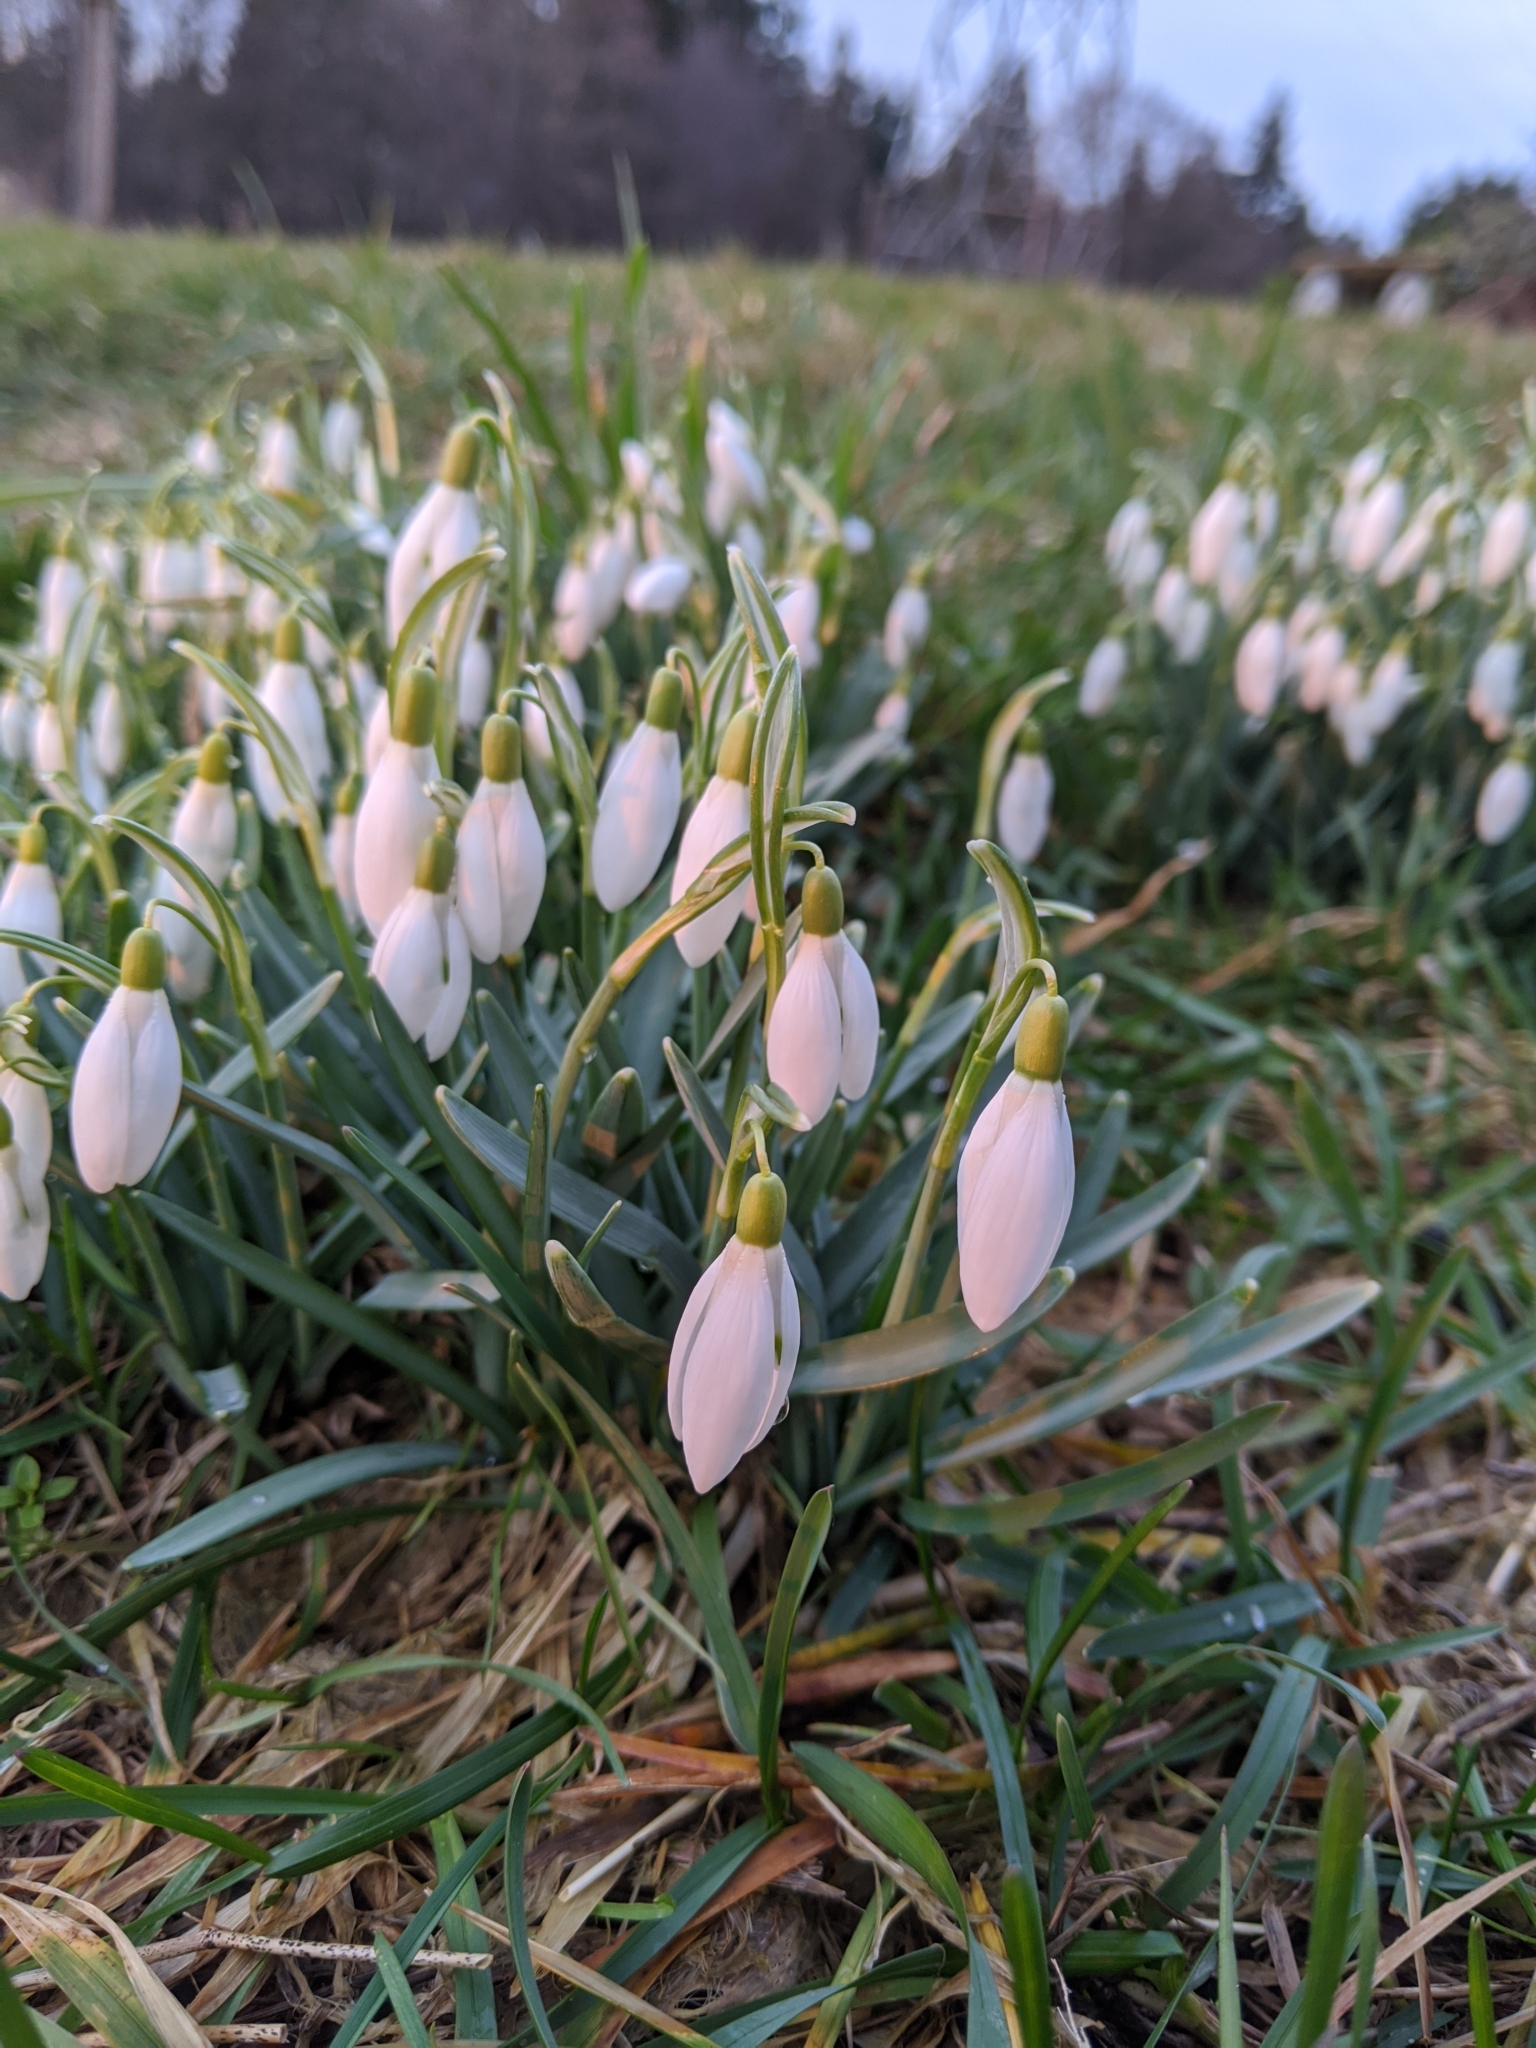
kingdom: Plantae
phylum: Tracheophyta
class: Liliopsida
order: Asparagales
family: Amaryllidaceae
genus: Galanthus
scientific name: Galanthus nivalis
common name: Snowdrop
